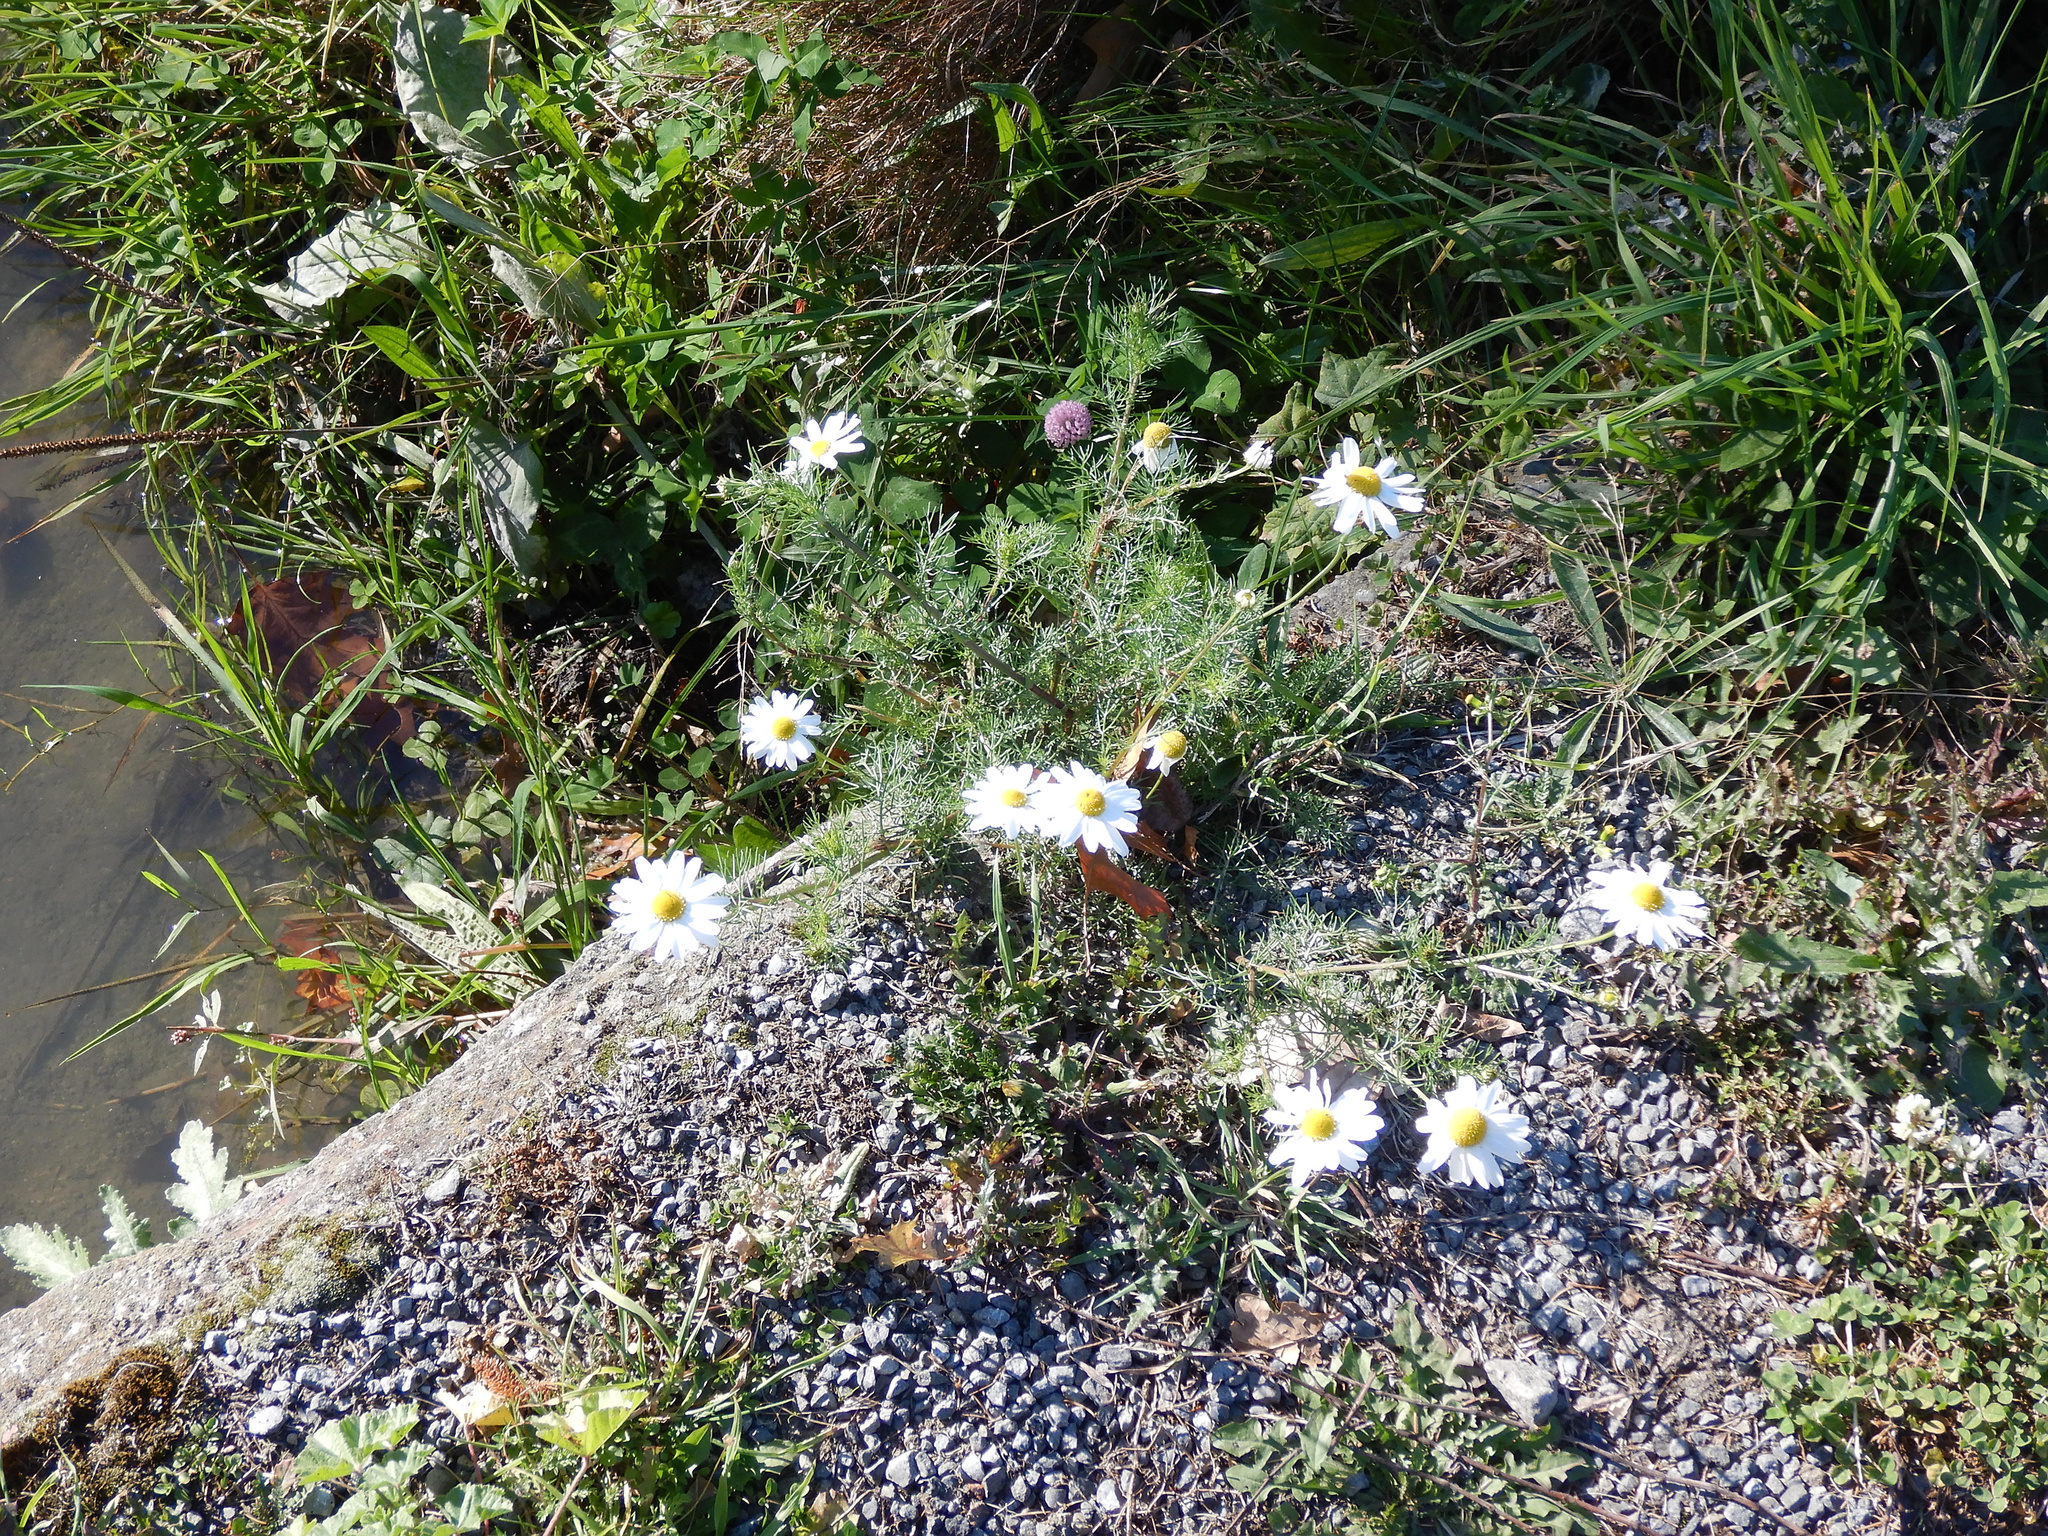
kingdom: Plantae
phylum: Tracheophyta
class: Magnoliopsida
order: Asterales
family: Asteraceae
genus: Tripleurospermum
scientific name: Tripleurospermum inodorum
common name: Scentless mayweed
